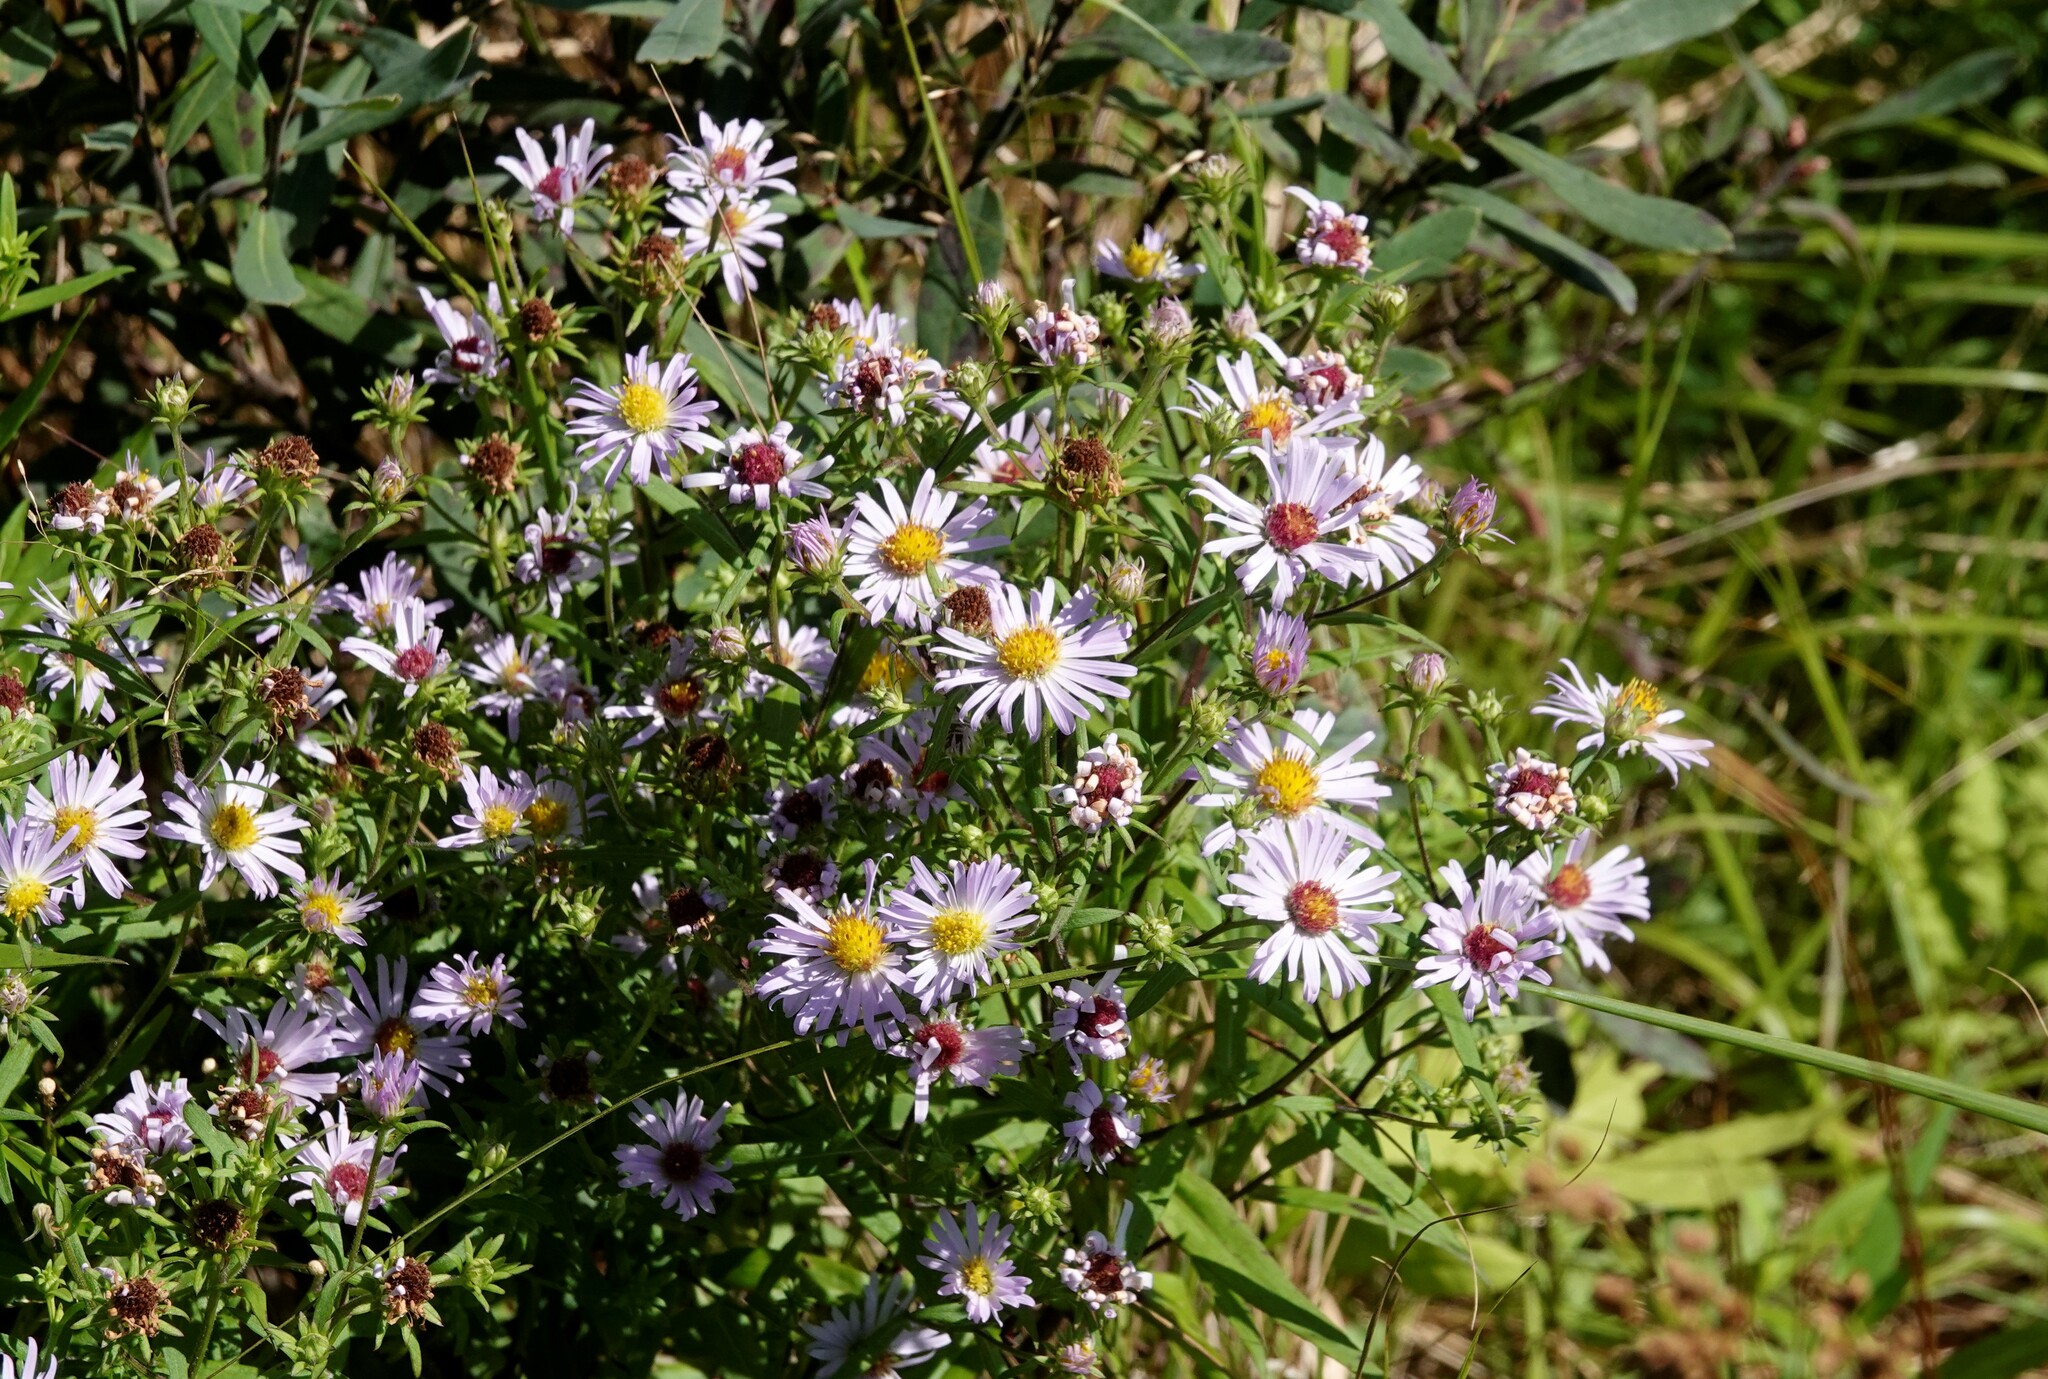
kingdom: Plantae
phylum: Tracheophyta
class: Magnoliopsida
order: Asterales
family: Asteraceae
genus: Symphyotrichum
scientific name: Symphyotrichum novi-belgii
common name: Michaelmas daisy
